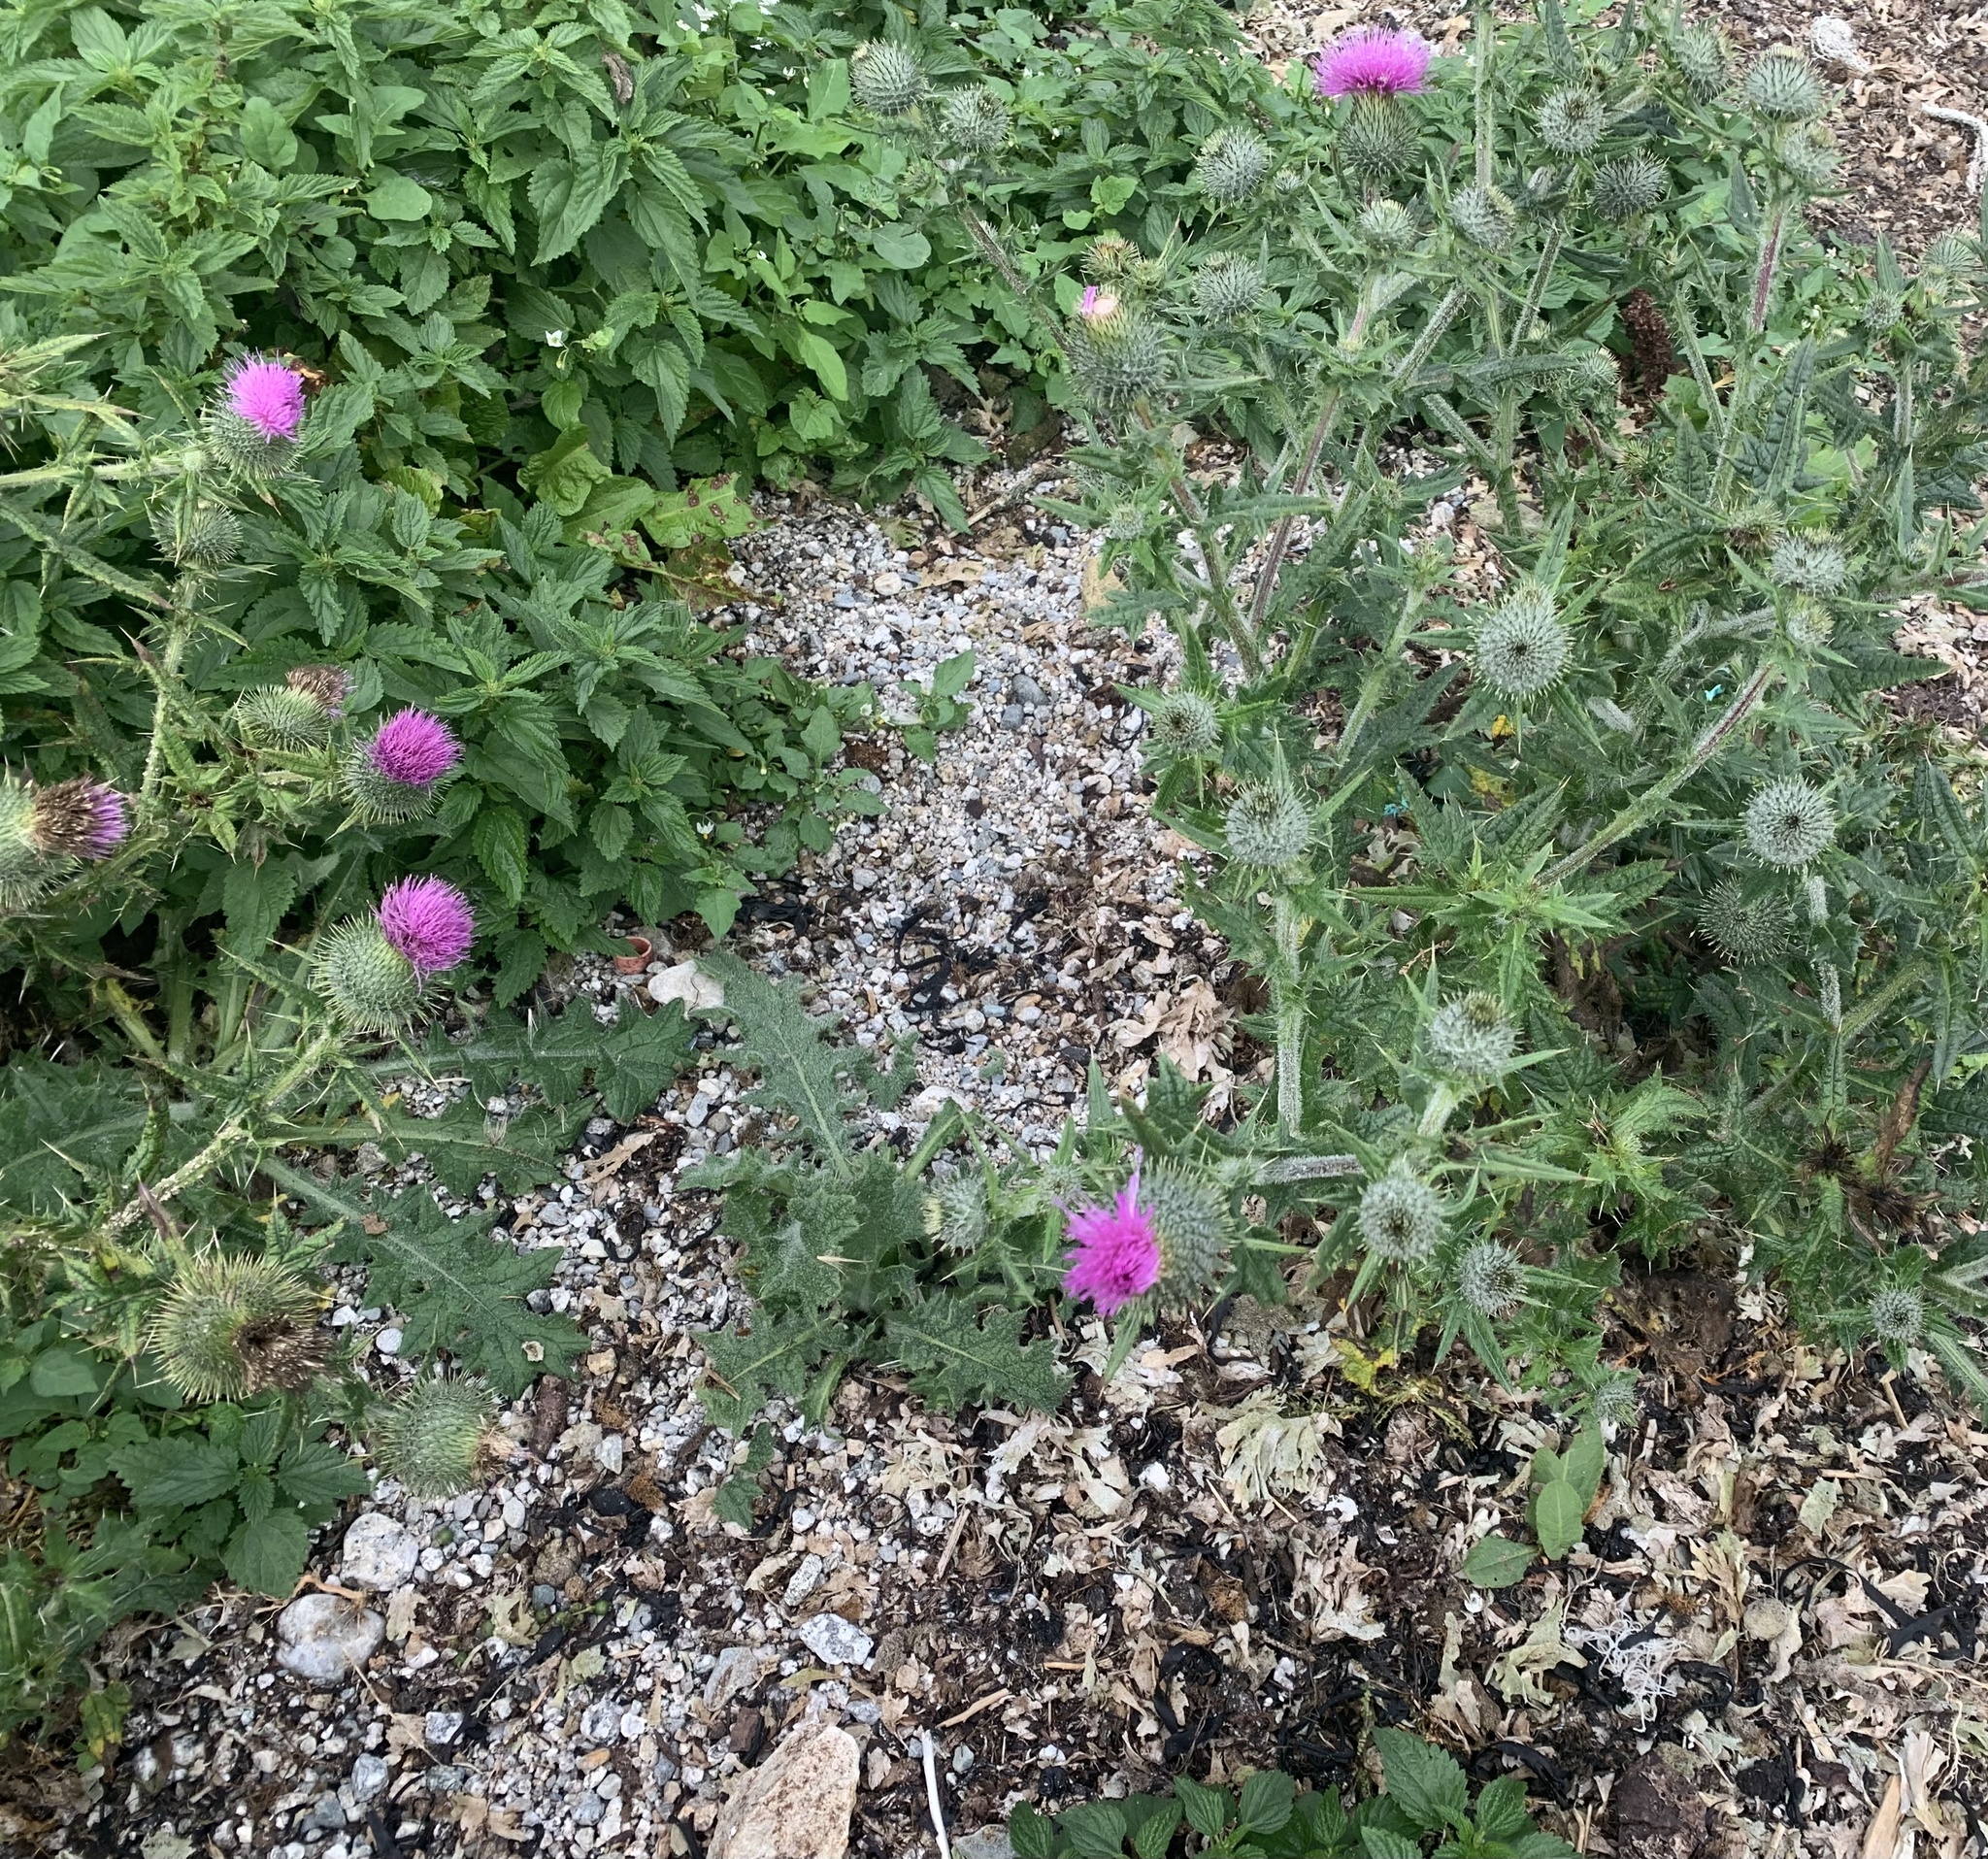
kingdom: Plantae
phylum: Tracheophyta
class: Magnoliopsida
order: Asterales
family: Asteraceae
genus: Cirsium
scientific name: Cirsium vulgare
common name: Bull thistle
